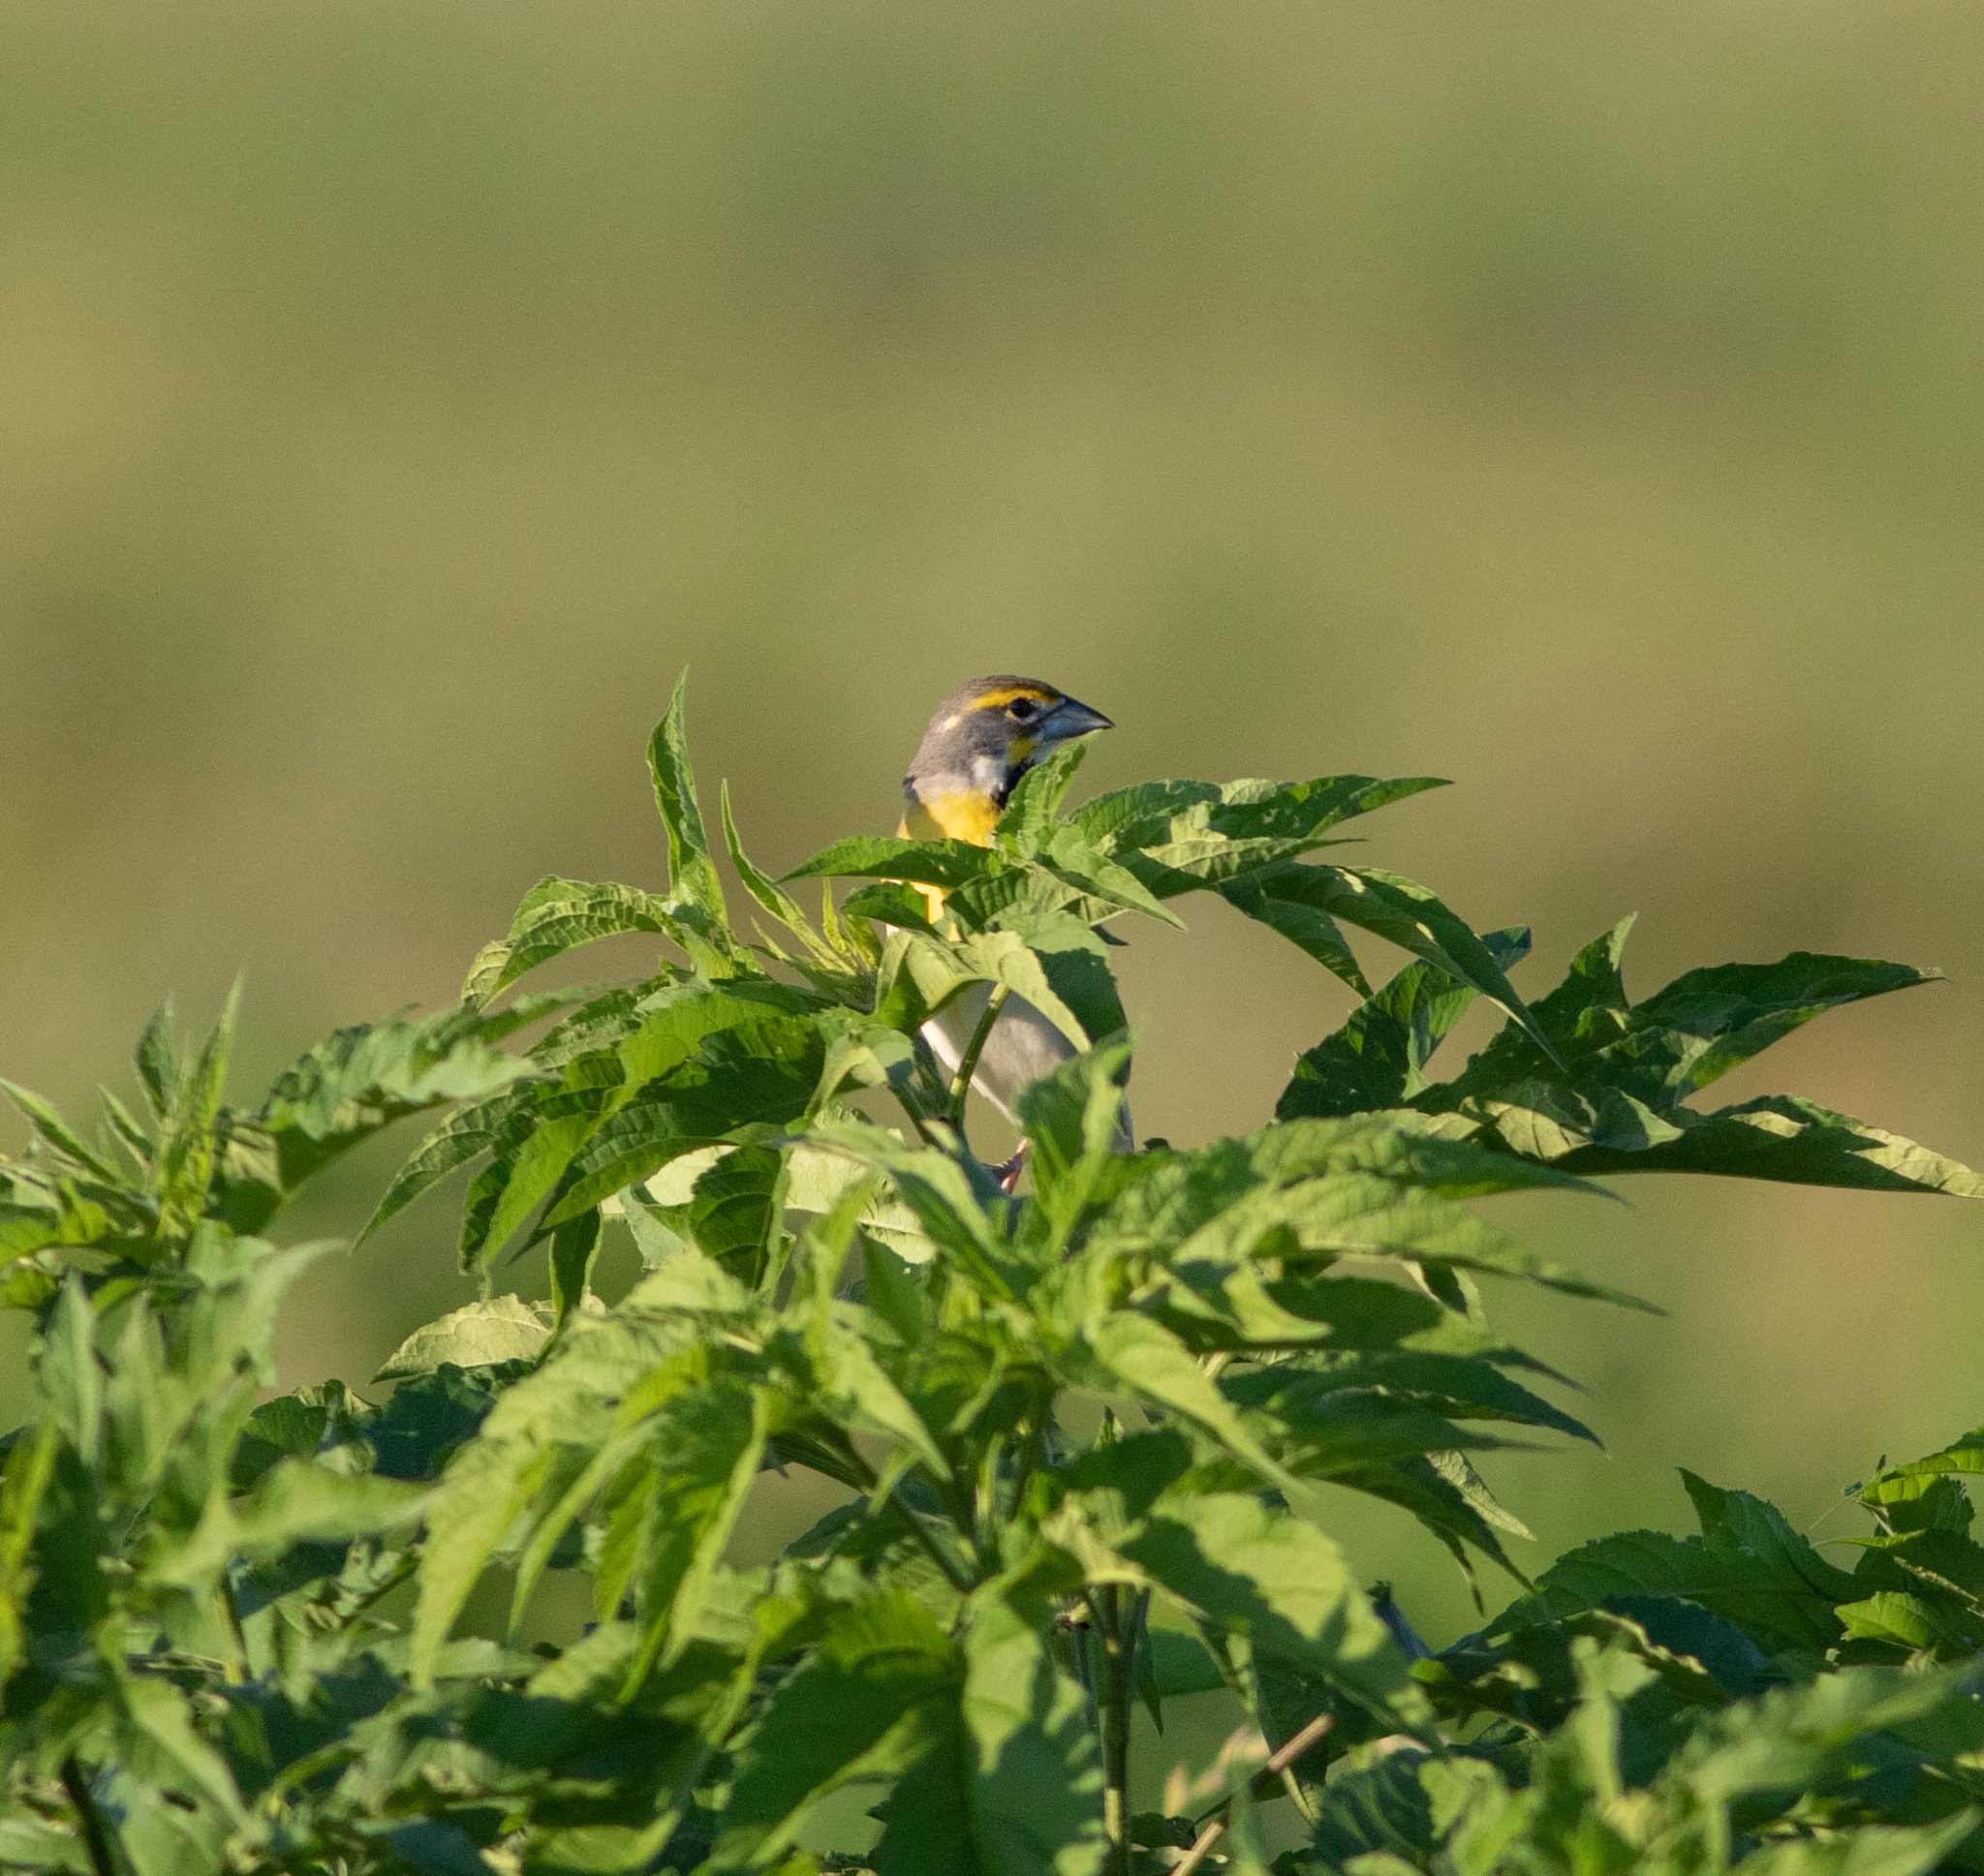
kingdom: Animalia
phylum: Chordata
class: Aves
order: Passeriformes
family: Cardinalidae
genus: Spiza
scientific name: Spiza americana
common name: Dickcissel
